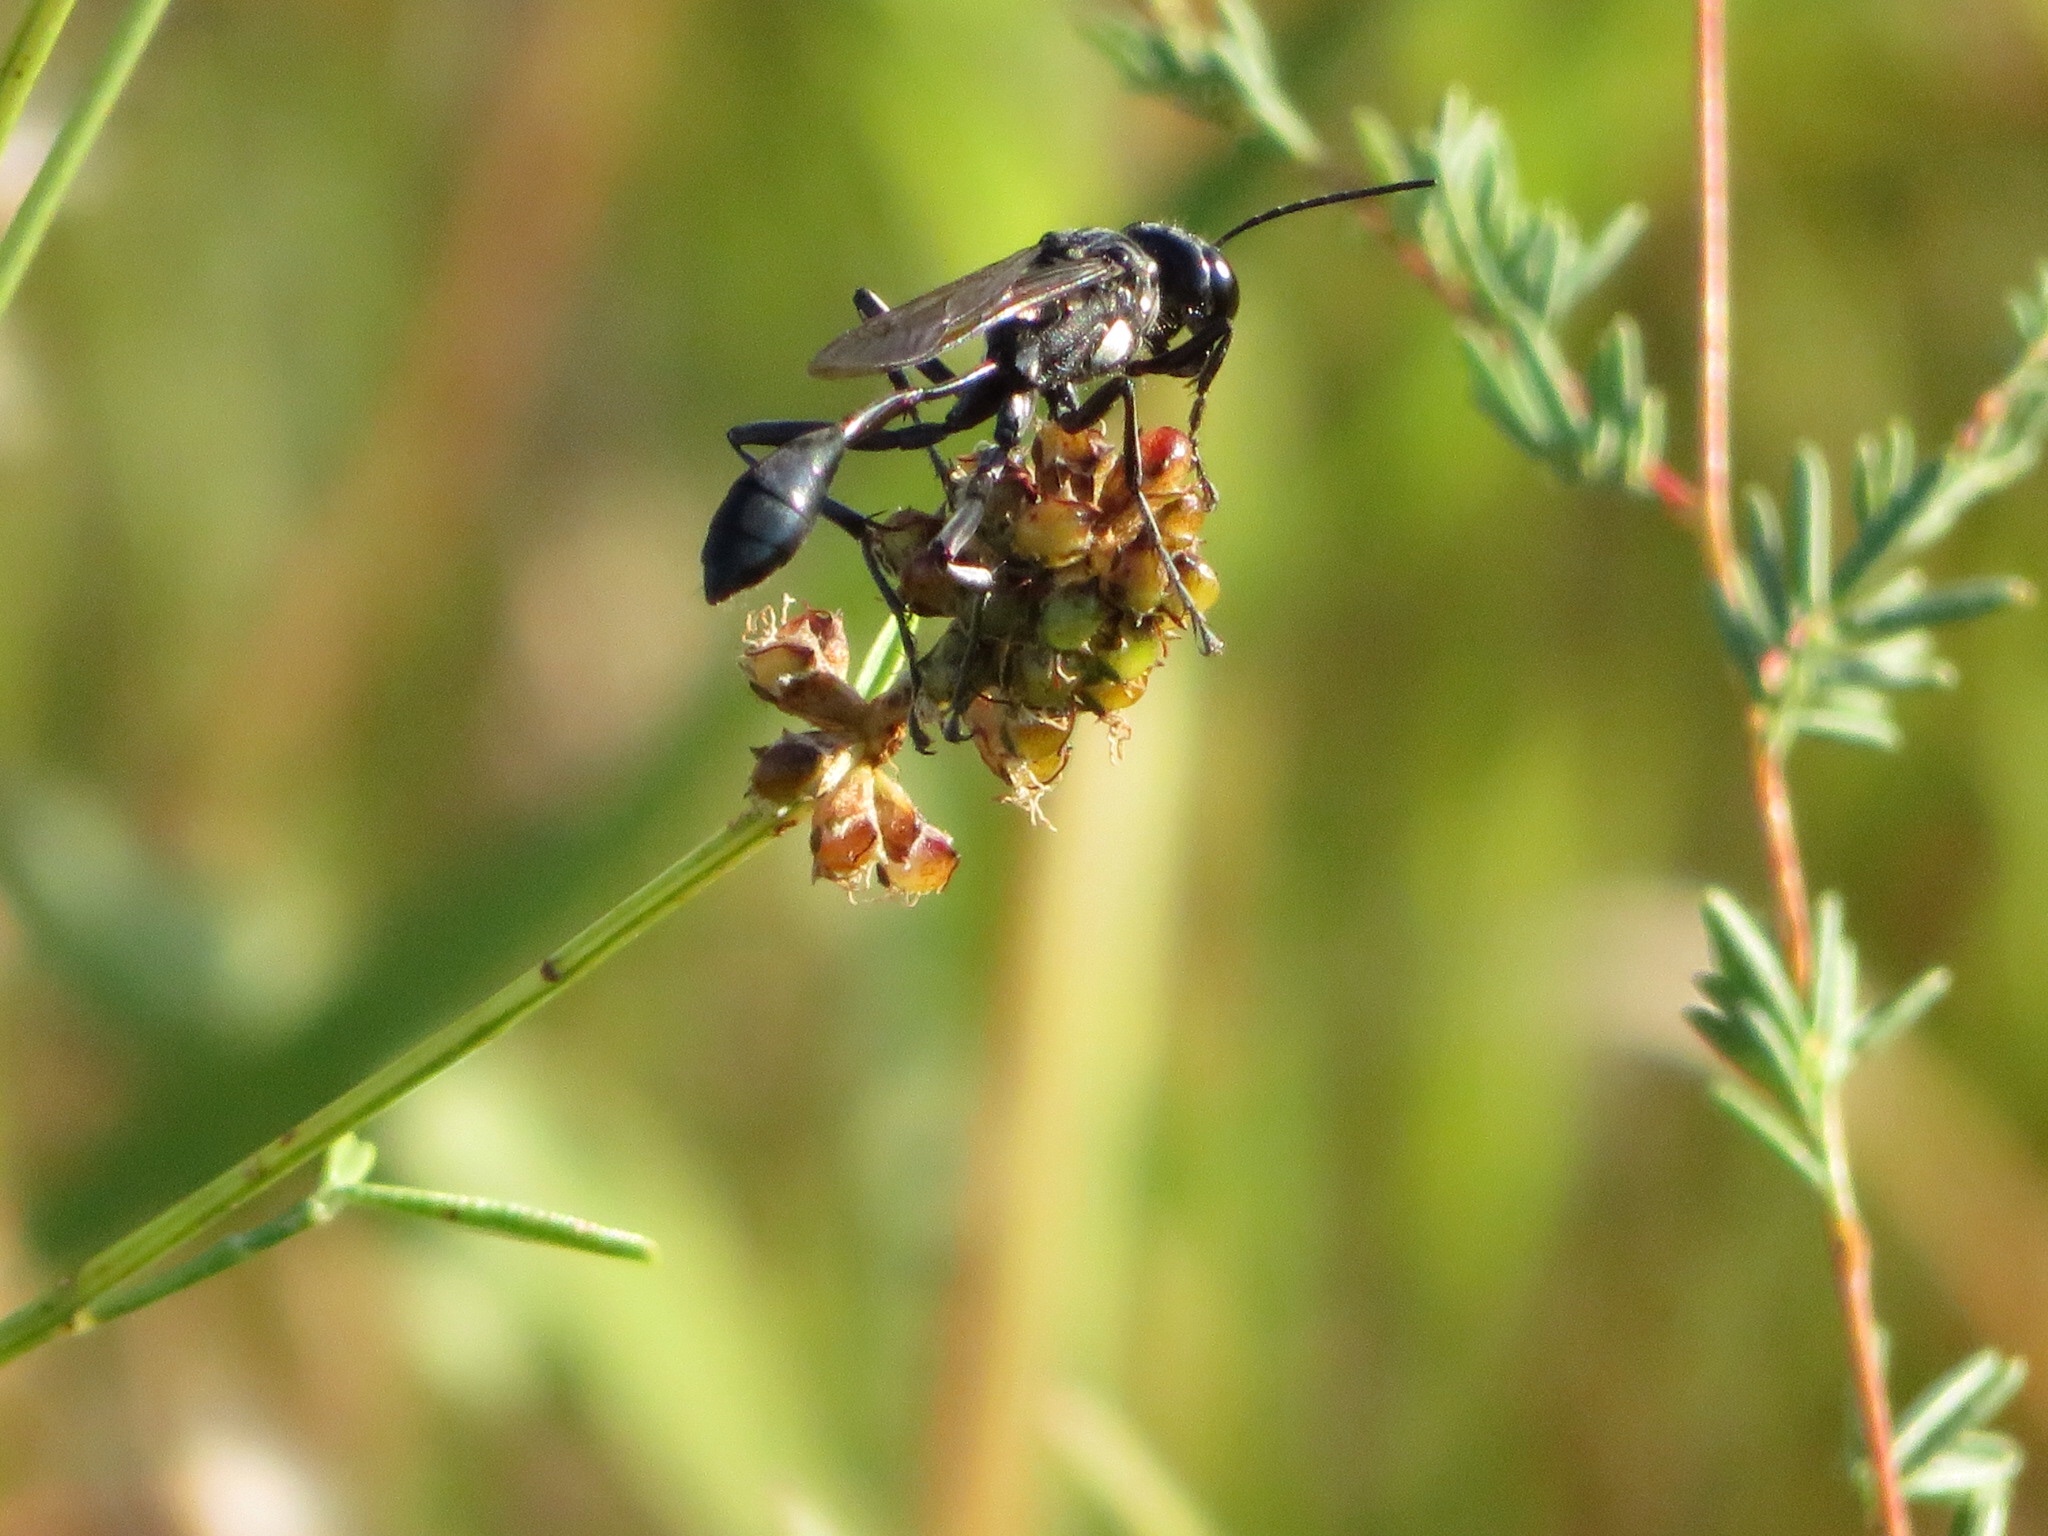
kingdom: Animalia
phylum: Arthropoda
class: Insecta
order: Hymenoptera
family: Sphecidae
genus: Eremnophila
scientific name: Eremnophila aureonotata
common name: Gold-marked thread-waisted wasp
